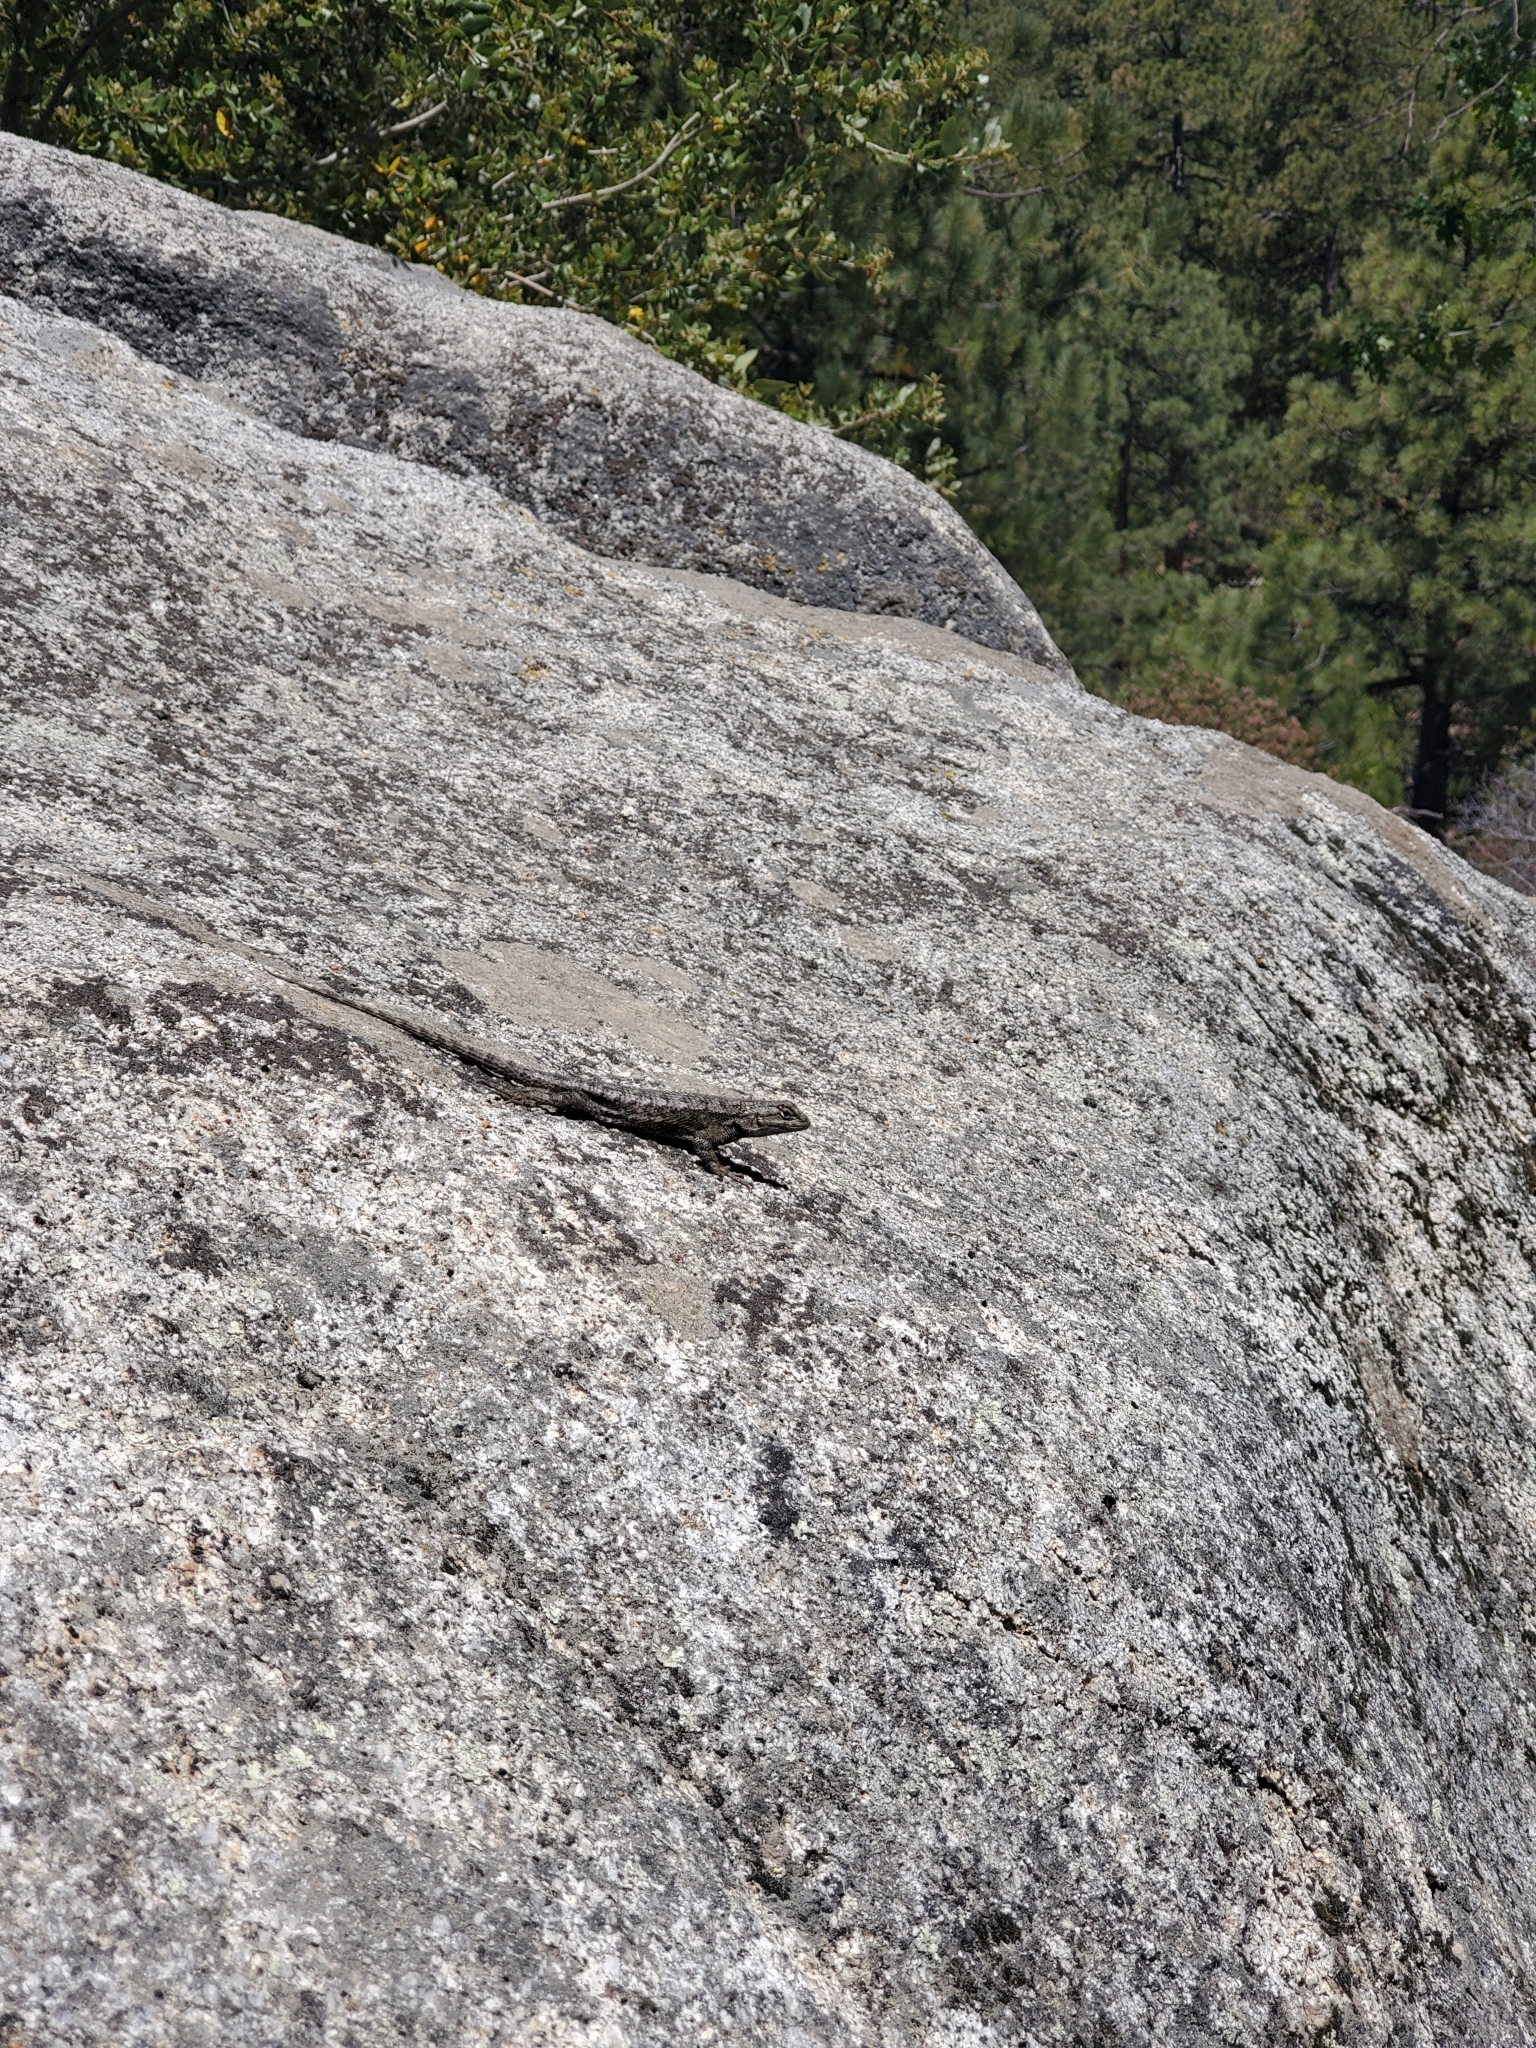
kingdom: Animalia
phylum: Chordata
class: Squamata
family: Phrynosomatidae
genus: Sceloporus
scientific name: Sceloporus occidentalis
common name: Western fence lizard
